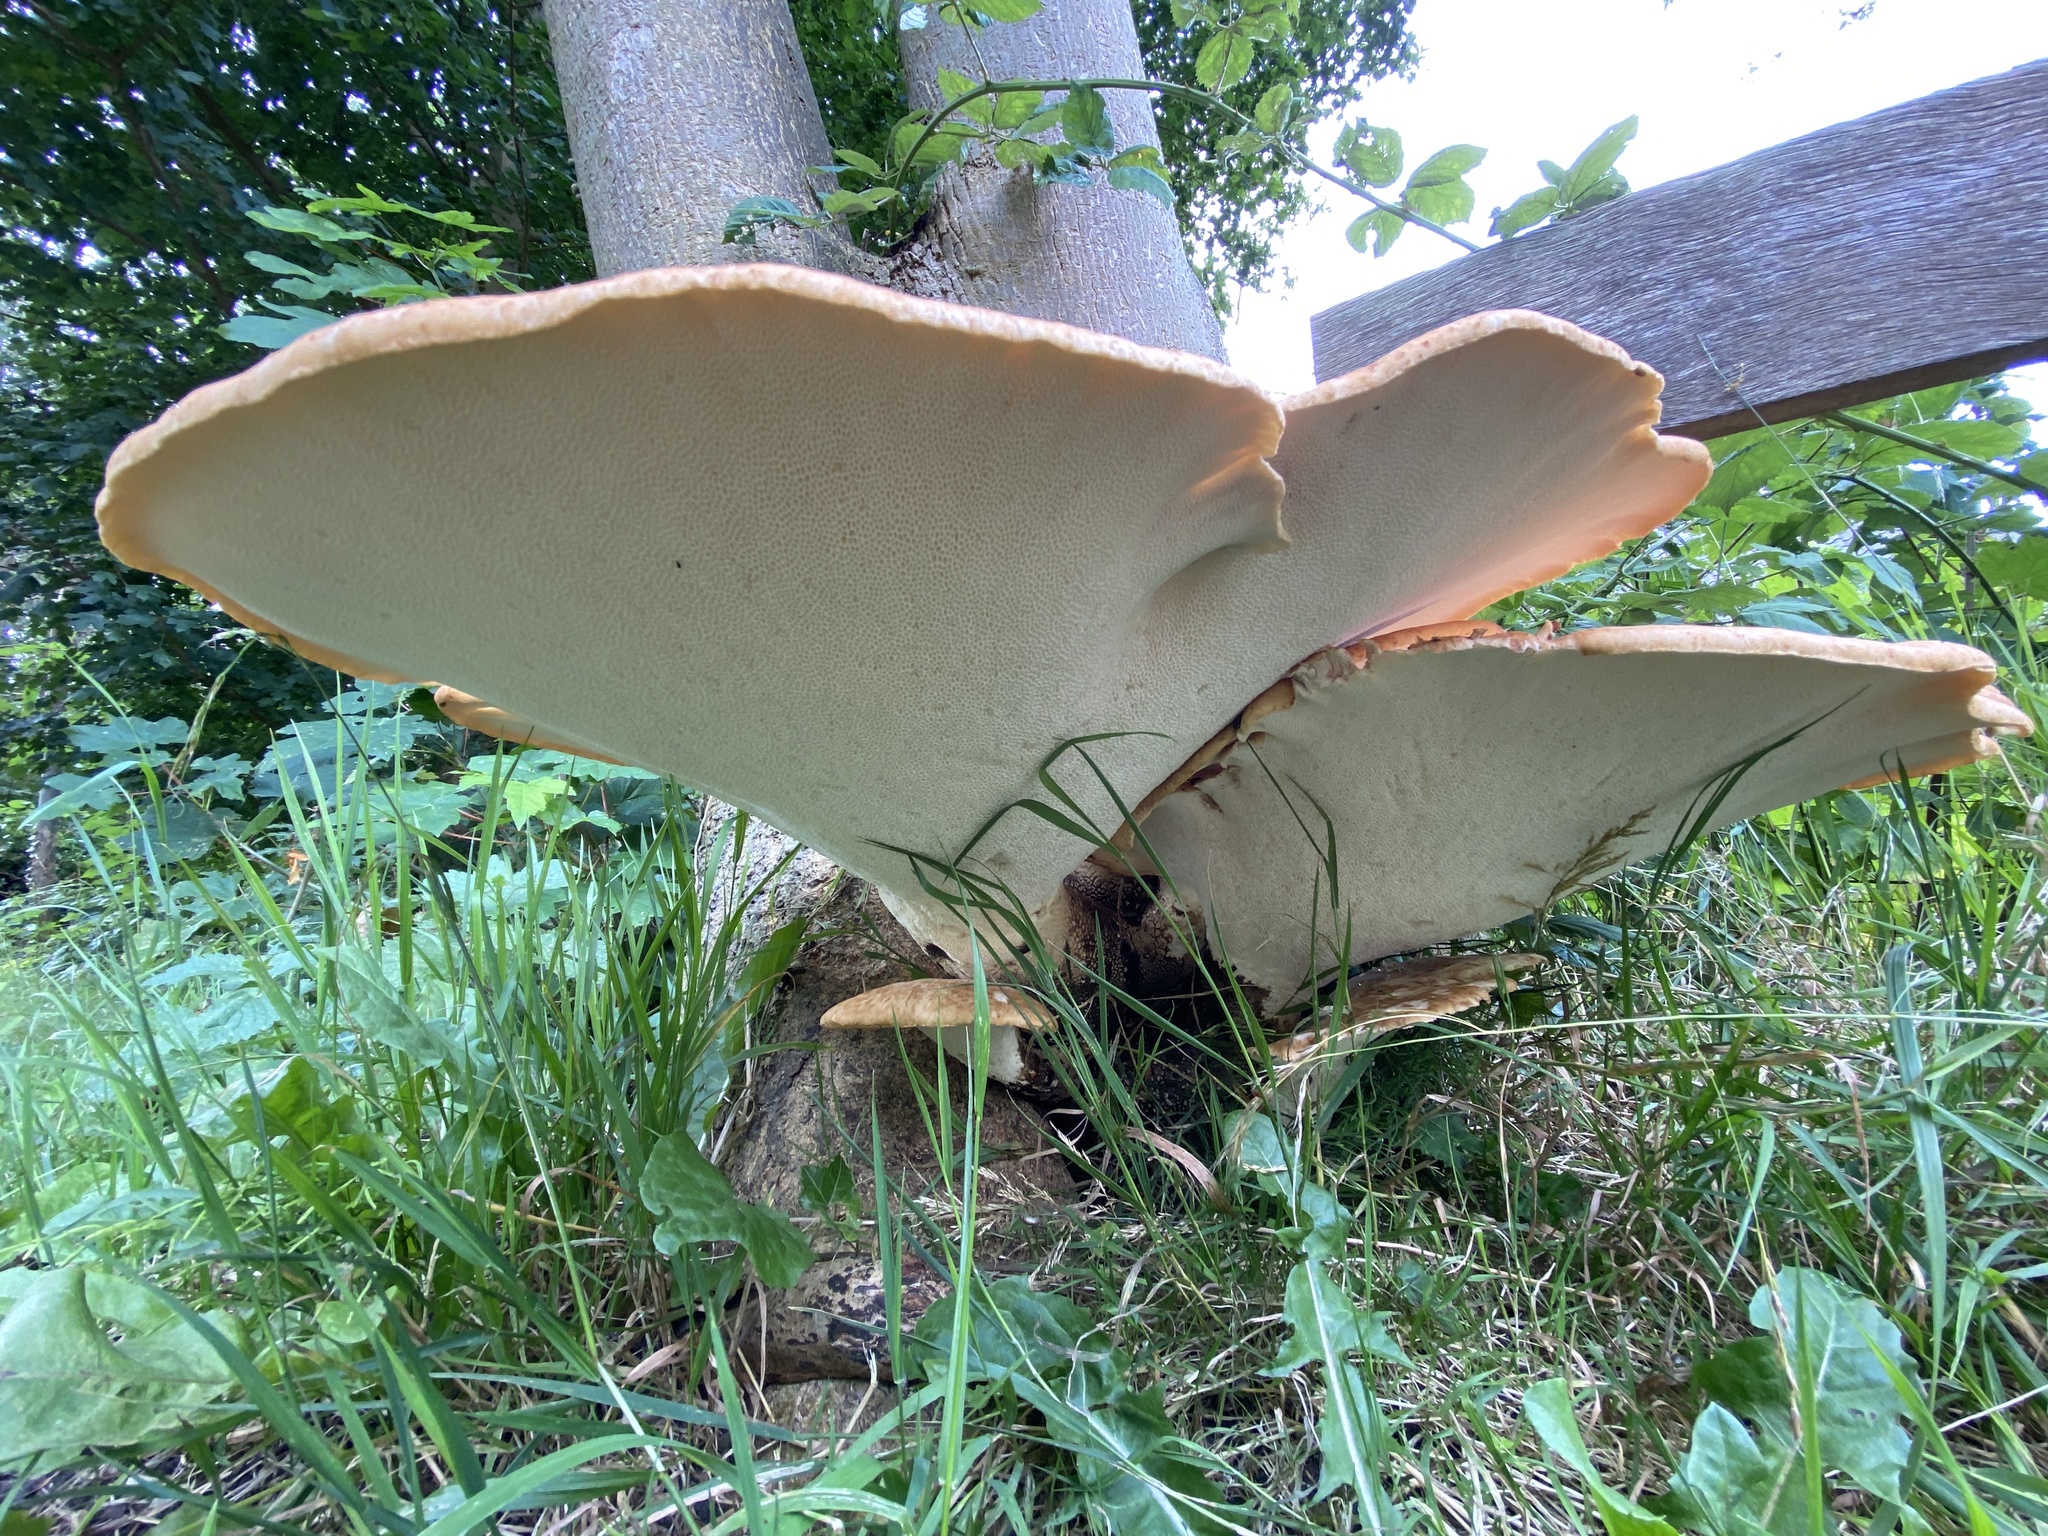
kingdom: Fungi
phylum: Basidiomycota
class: Agaricomycetes
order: Polyporales
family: Polyporaceae
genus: Cerioporus
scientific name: Cerioporus squamosus
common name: Dryad's saddle
